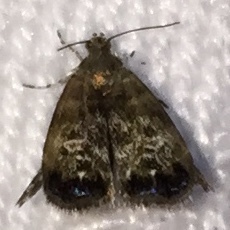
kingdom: Animalia
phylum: Arthropoda
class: Insecta
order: Lepidoptera
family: Choreutidae
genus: Brenthia
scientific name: Brenthia pavonacella
